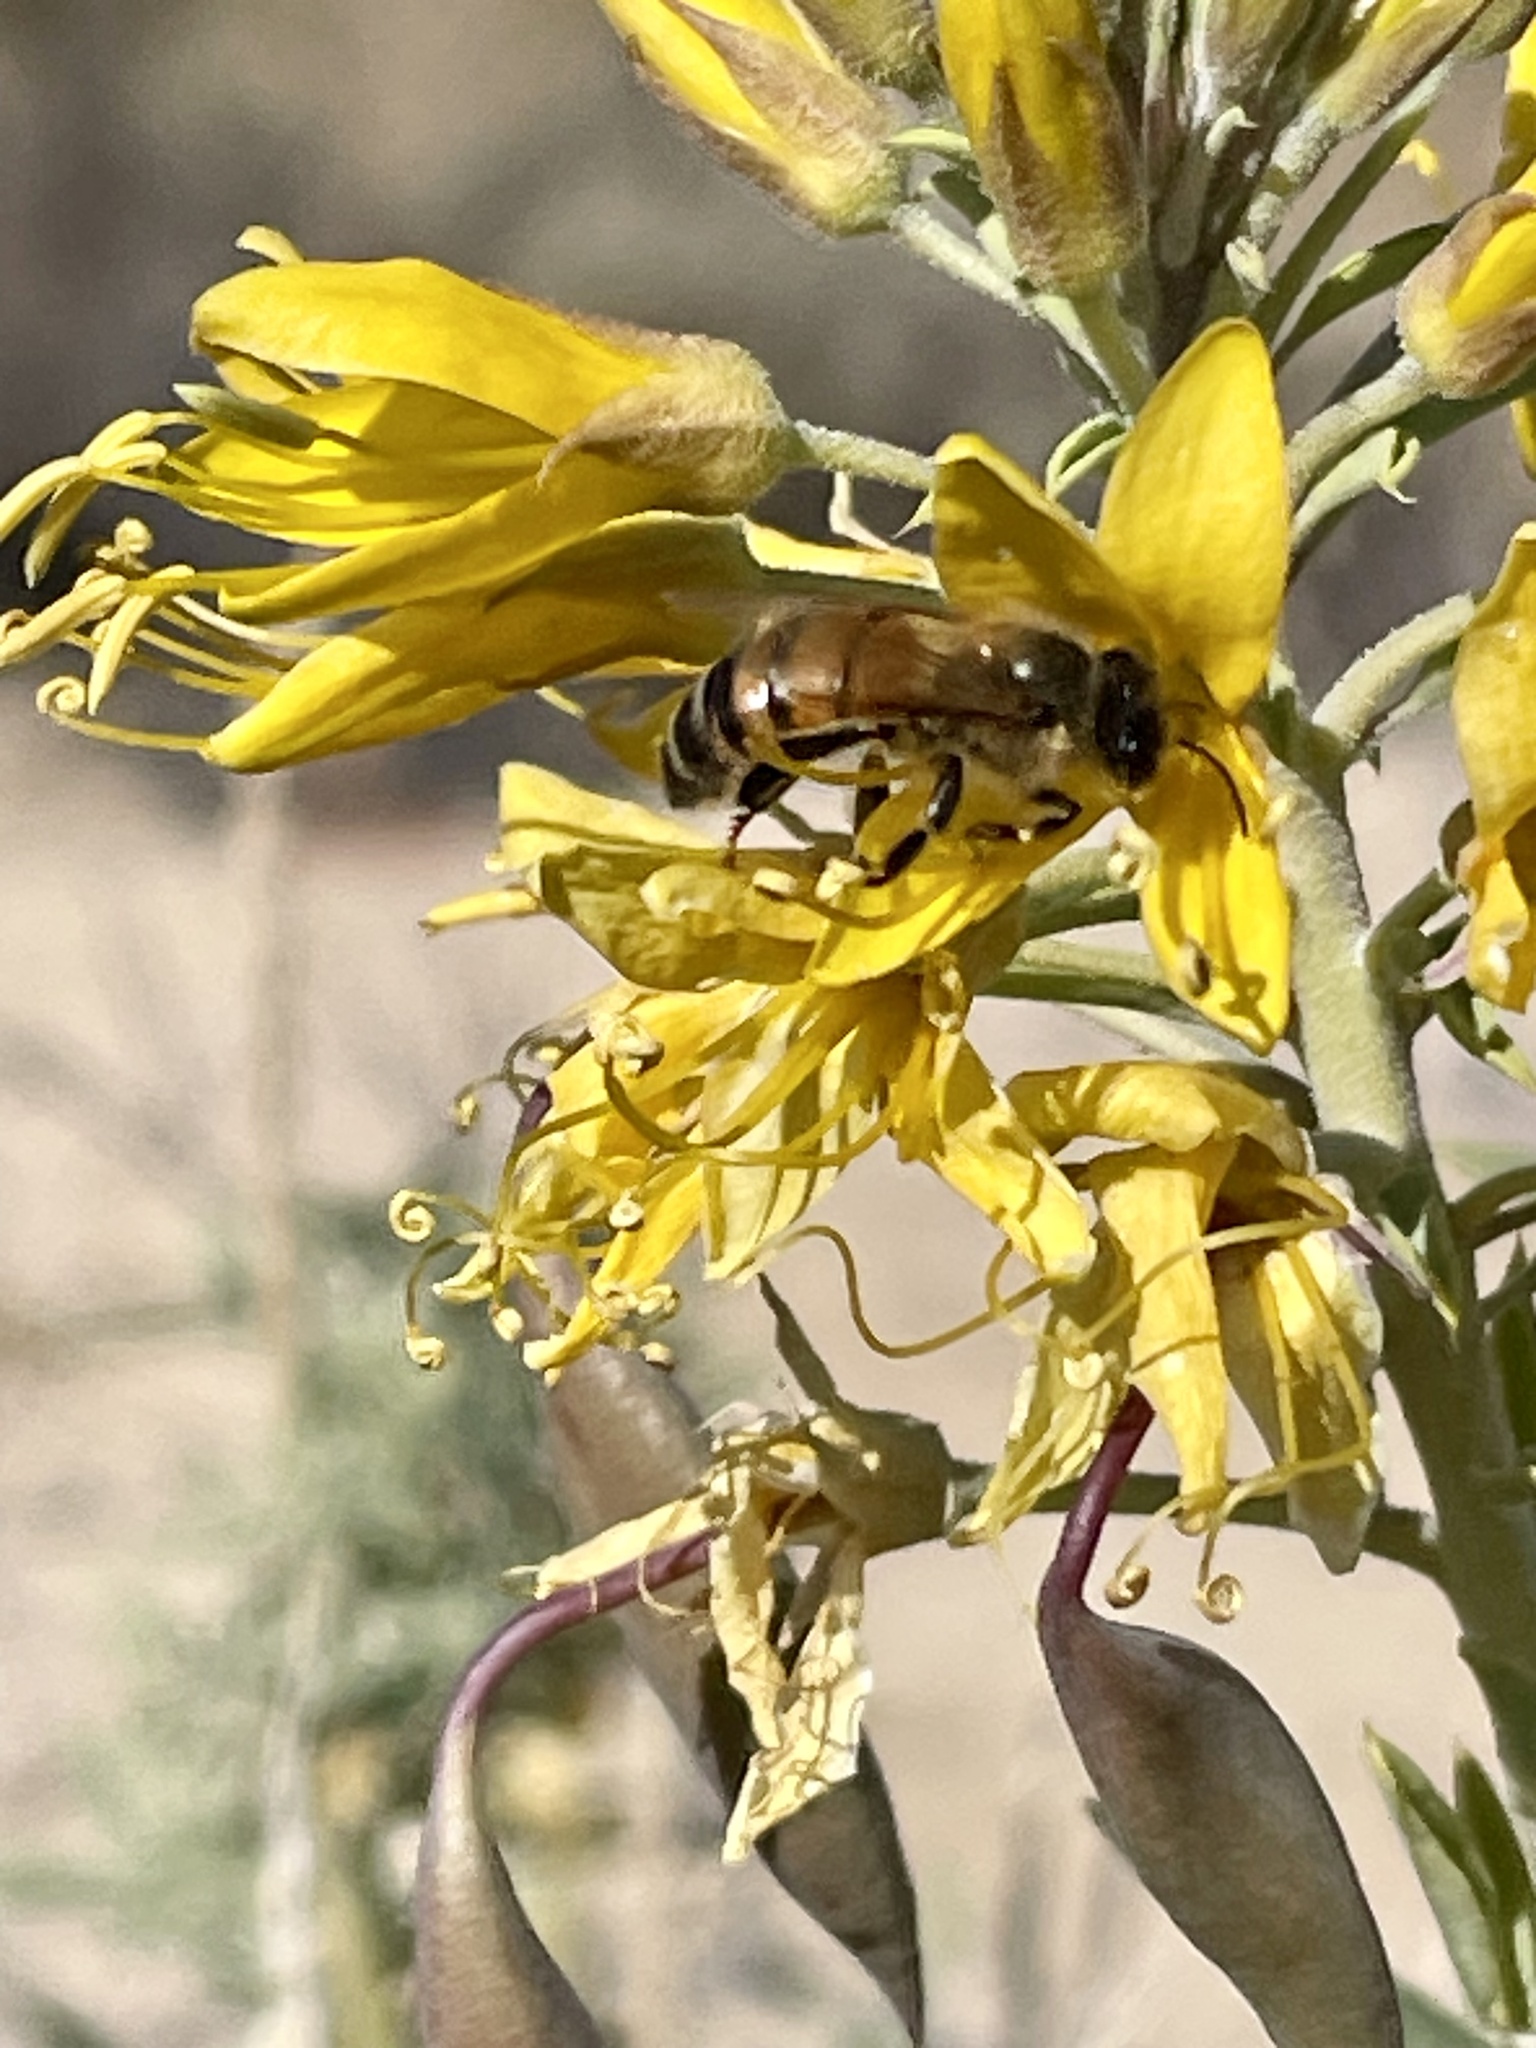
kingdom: Plantae
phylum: Tracheophyta
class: Magnoliopsida
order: Brassicales
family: Cleomaceae
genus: Cleomella
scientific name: Cleomella arborea
